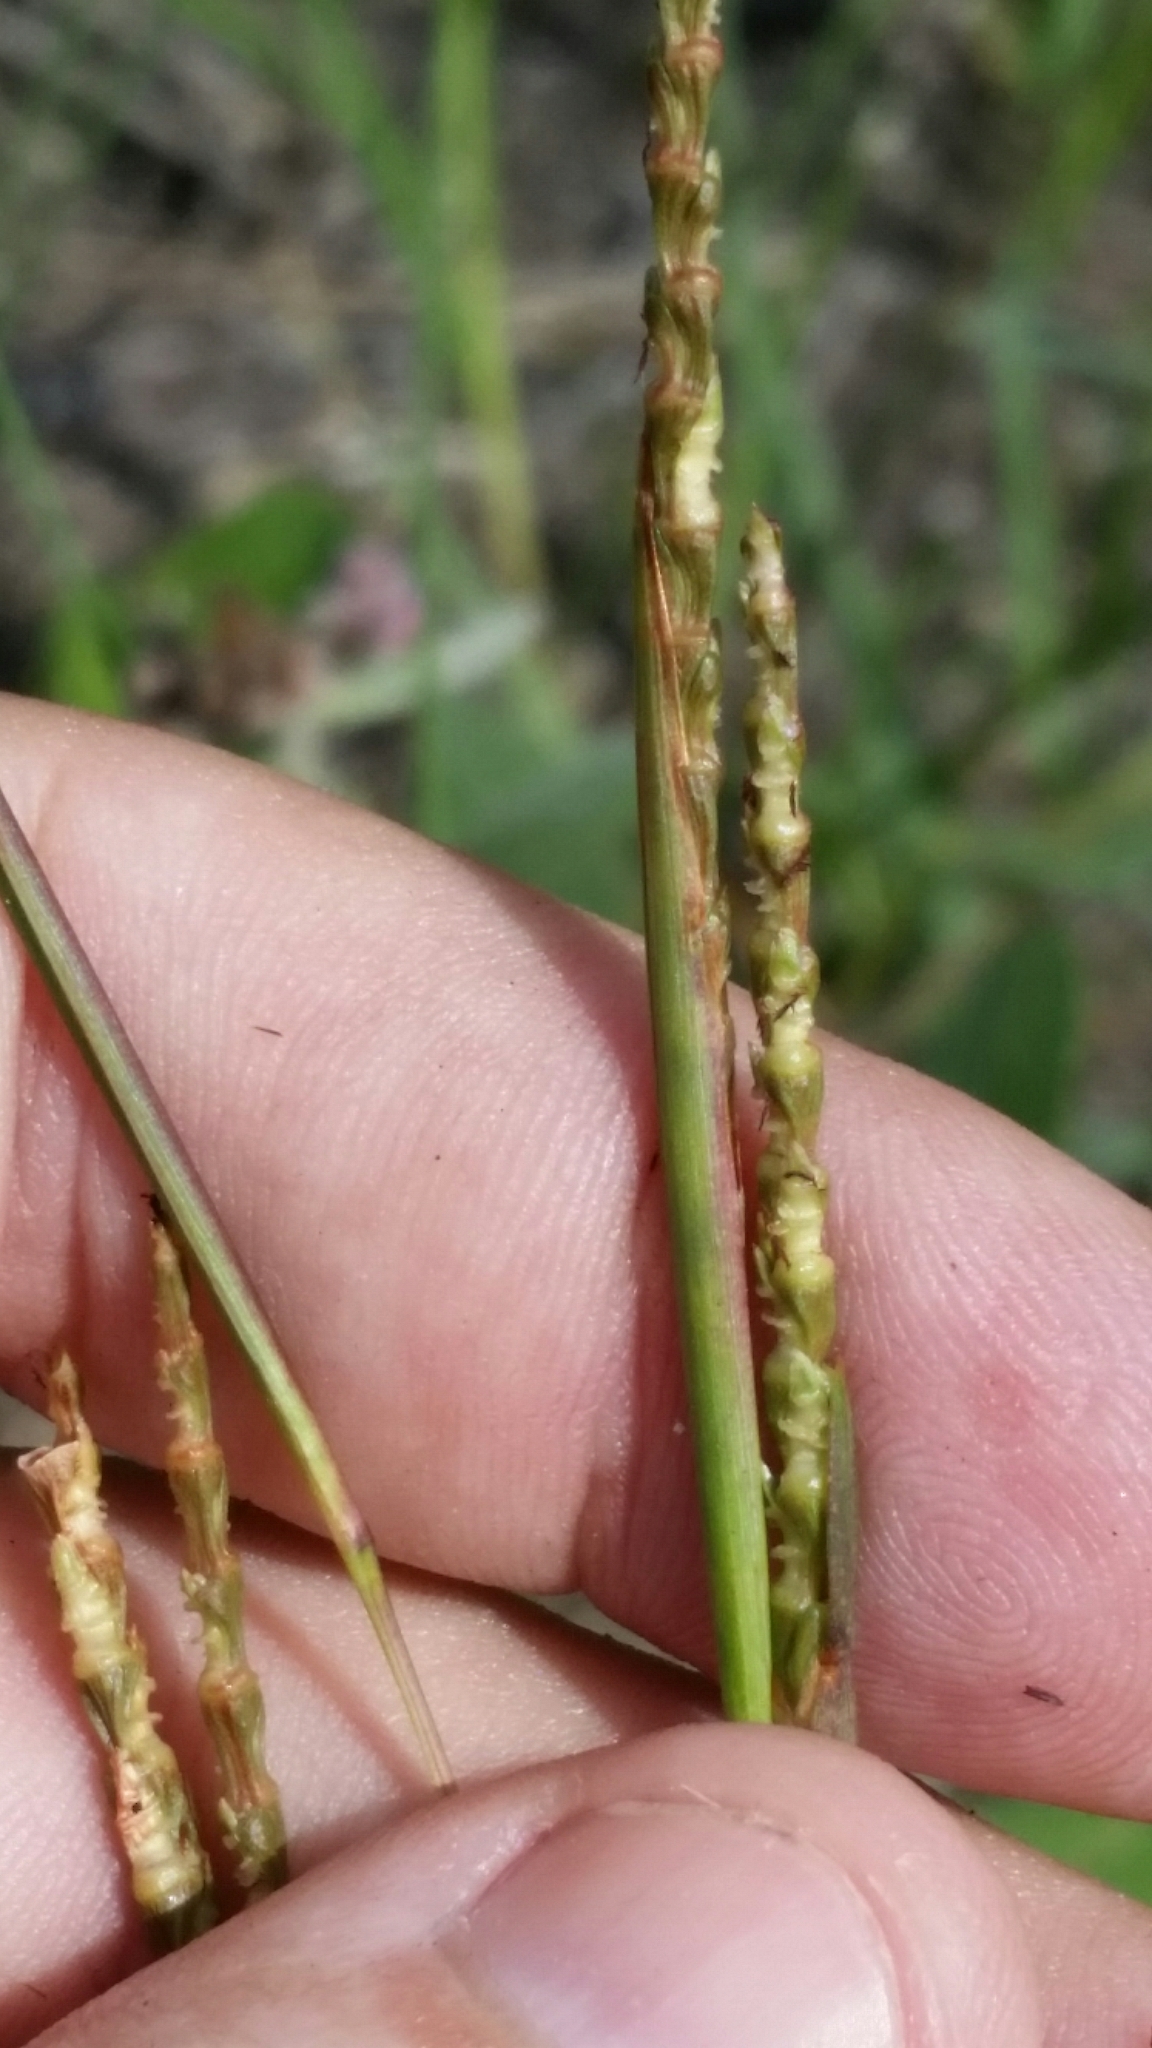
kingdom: Plantae
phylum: Tracheophyta
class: Liliopsida
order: Poales
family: Poaceae
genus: Rottboellia
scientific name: Rottboellia rugosa
